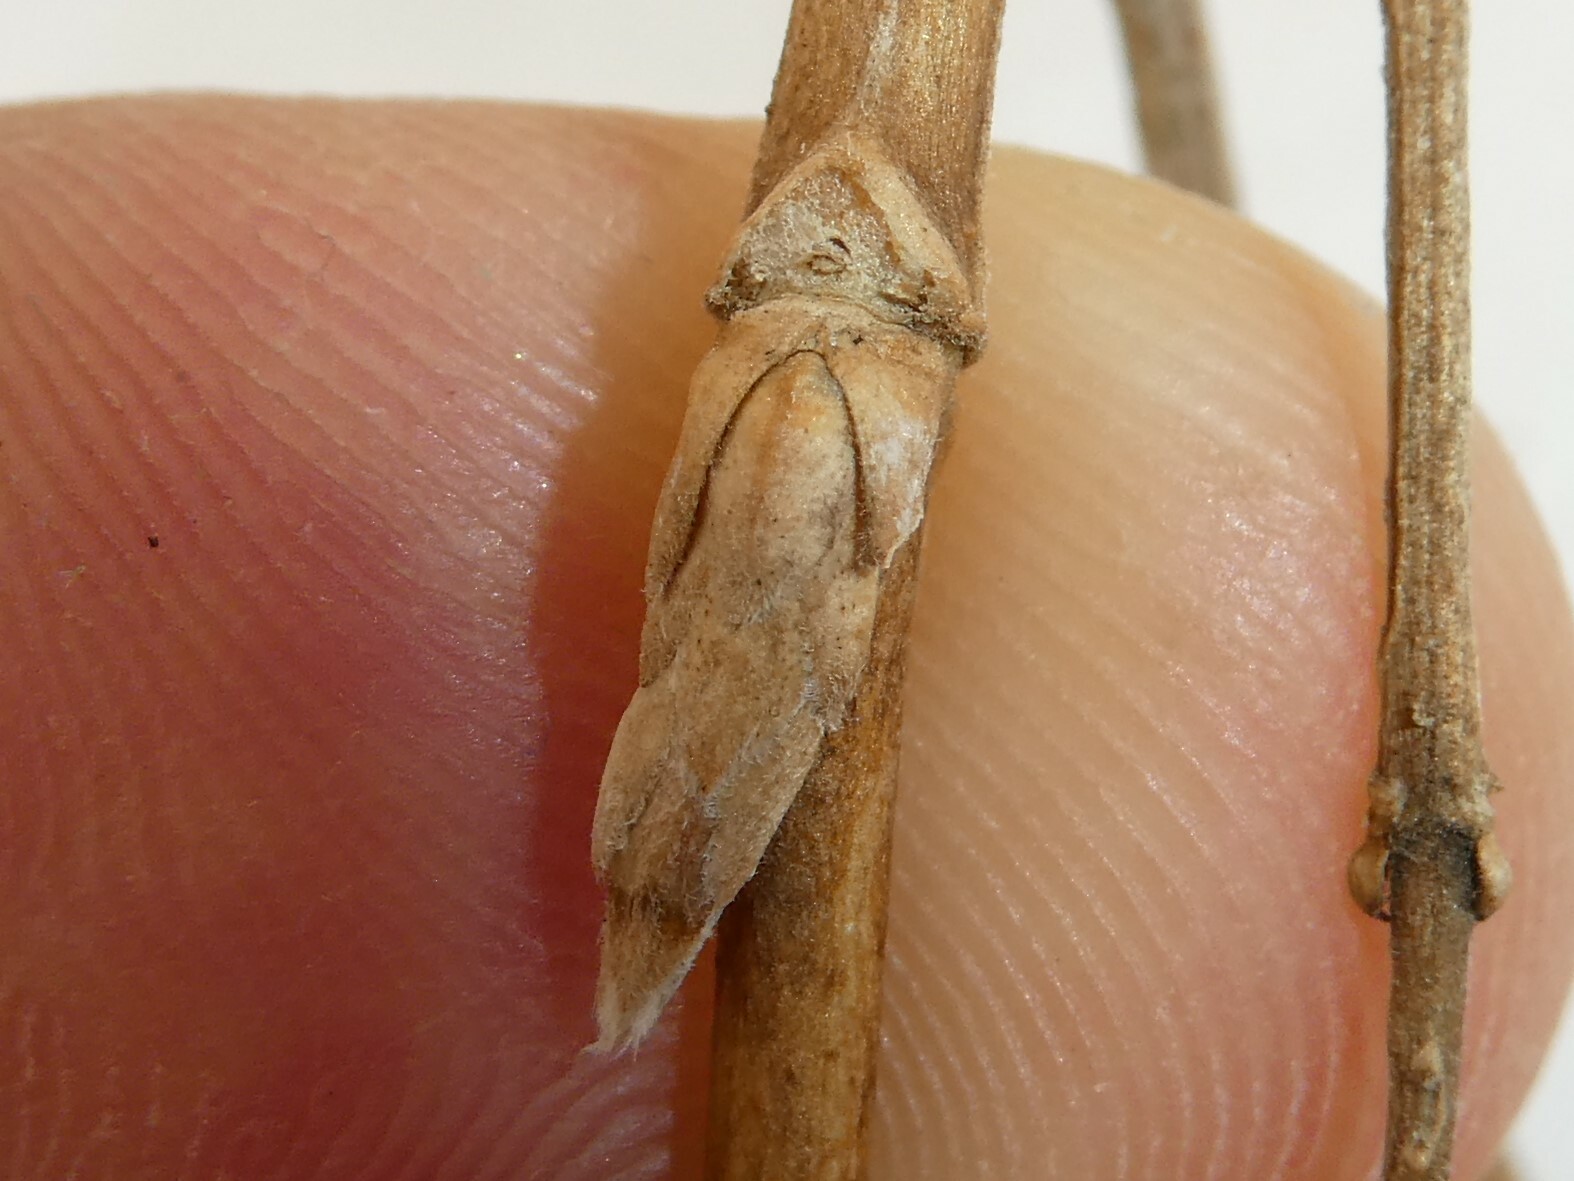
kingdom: Plantae
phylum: Tracheophyta
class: Magnoliopsida
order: Dipsacales
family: Caprifoliaceae
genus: Lonicera
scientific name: Lonicera canadensis
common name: American fly-honeysuckle
